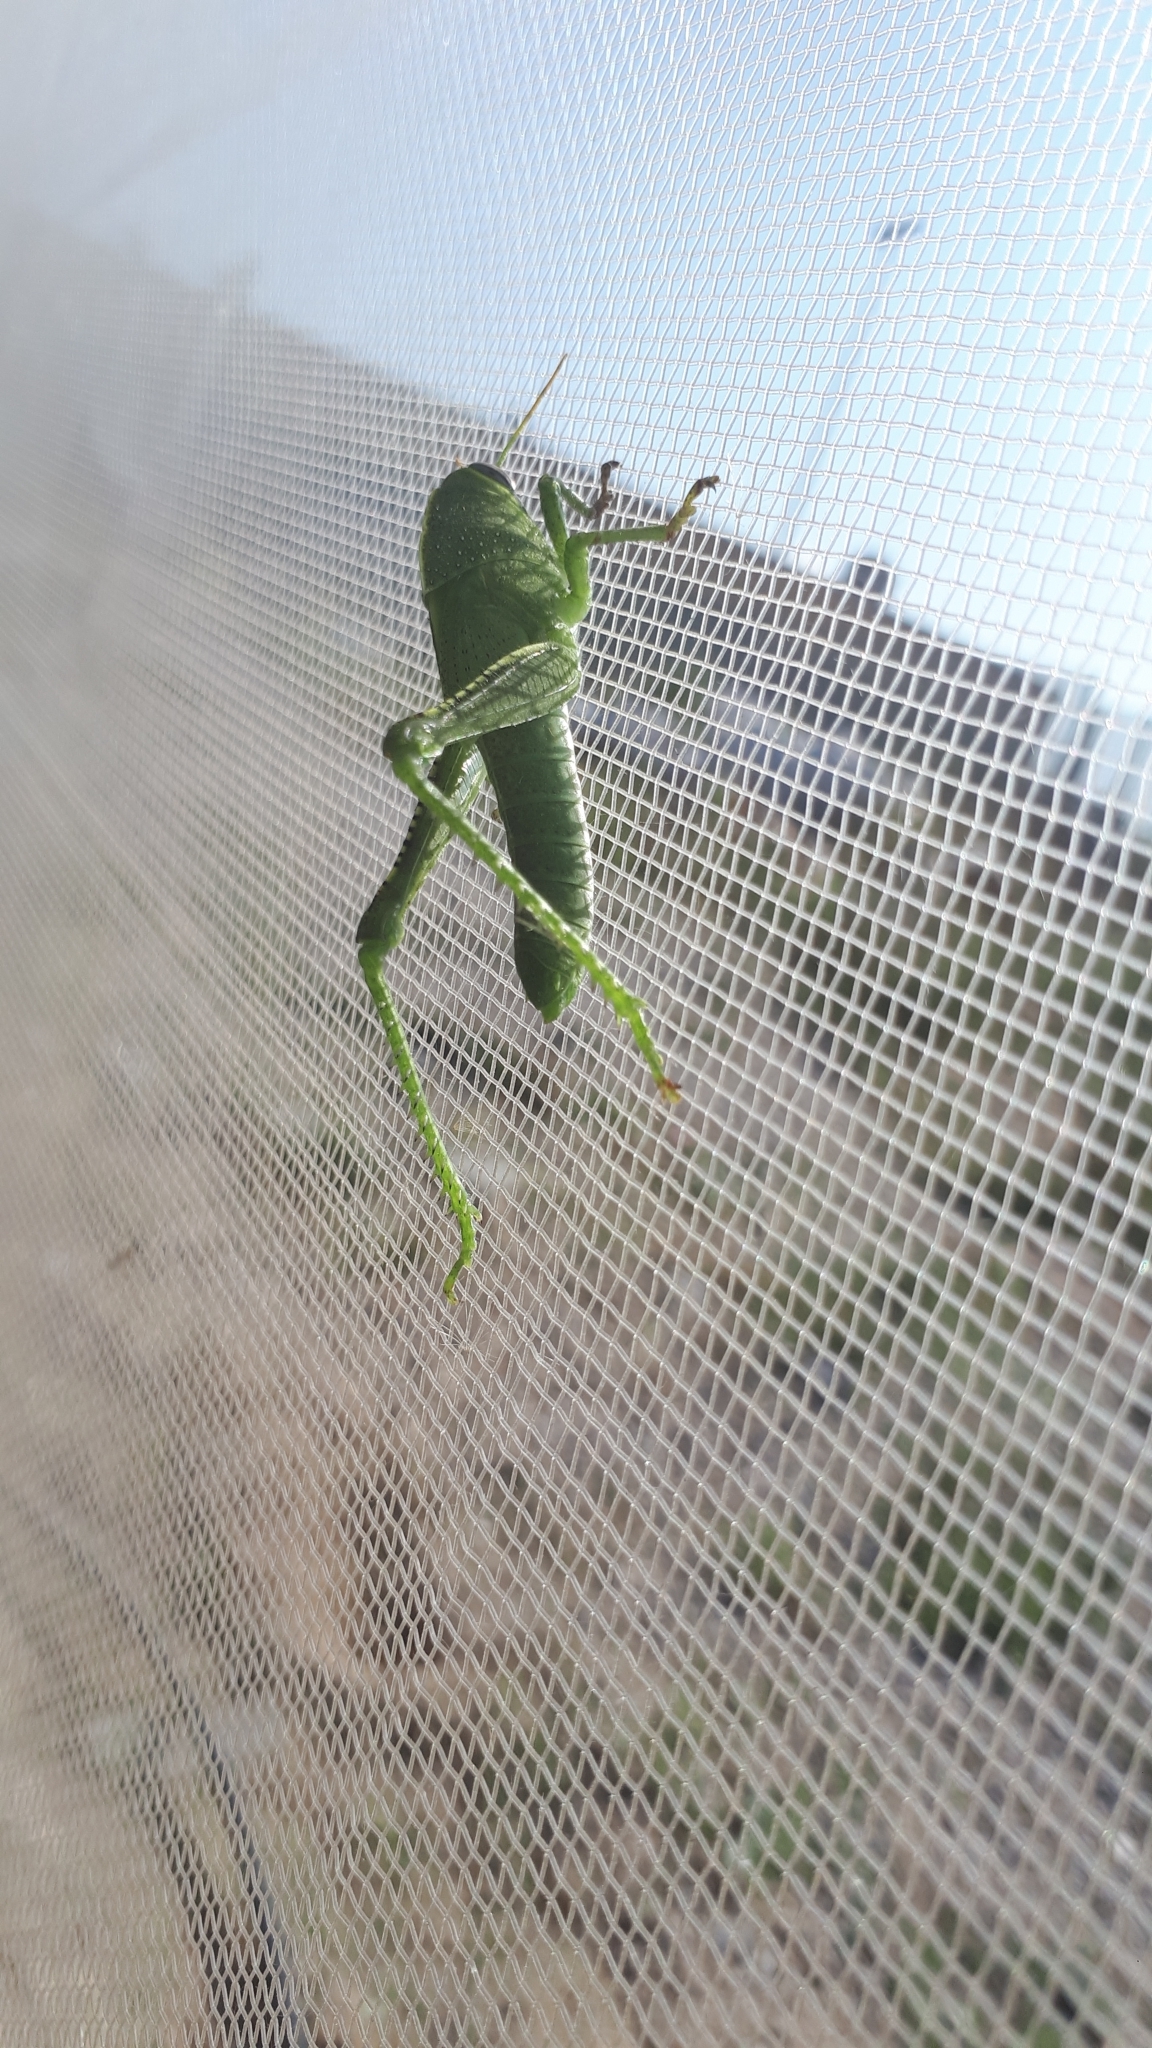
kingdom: Animalia
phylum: Arthropoda
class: Insecta
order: Orthoptera
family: Acrididae
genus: Anacridium
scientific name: Anacridium aegyptium
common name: Egyptian grasshopper
